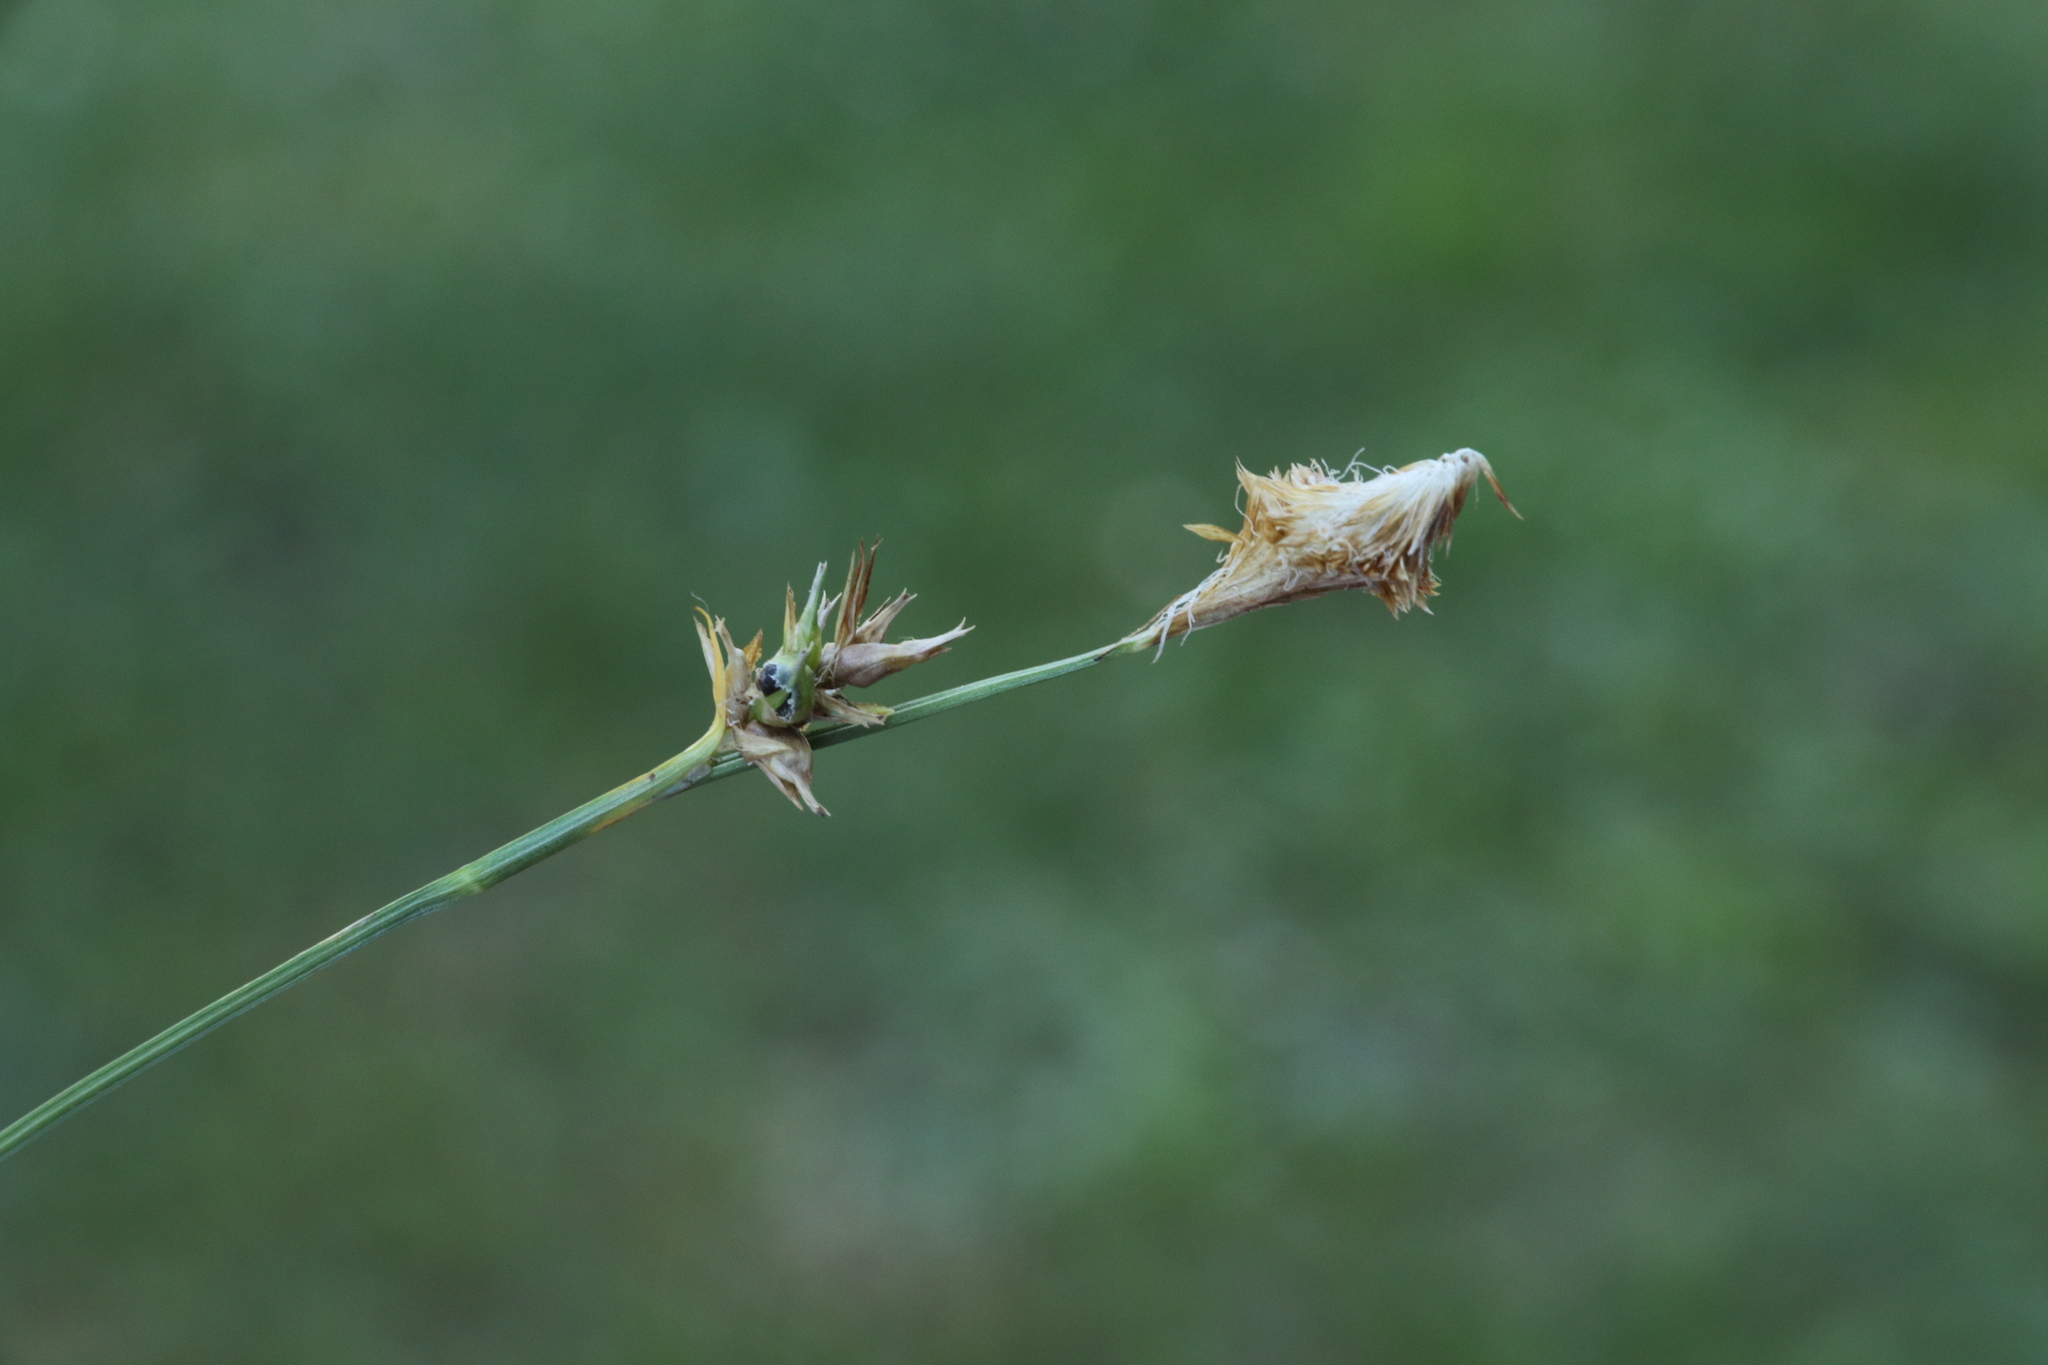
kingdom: Plantae
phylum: Tracheophyta
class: Liliopsida
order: Poales
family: Cyperaceae
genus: Carex
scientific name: Carex michelii
